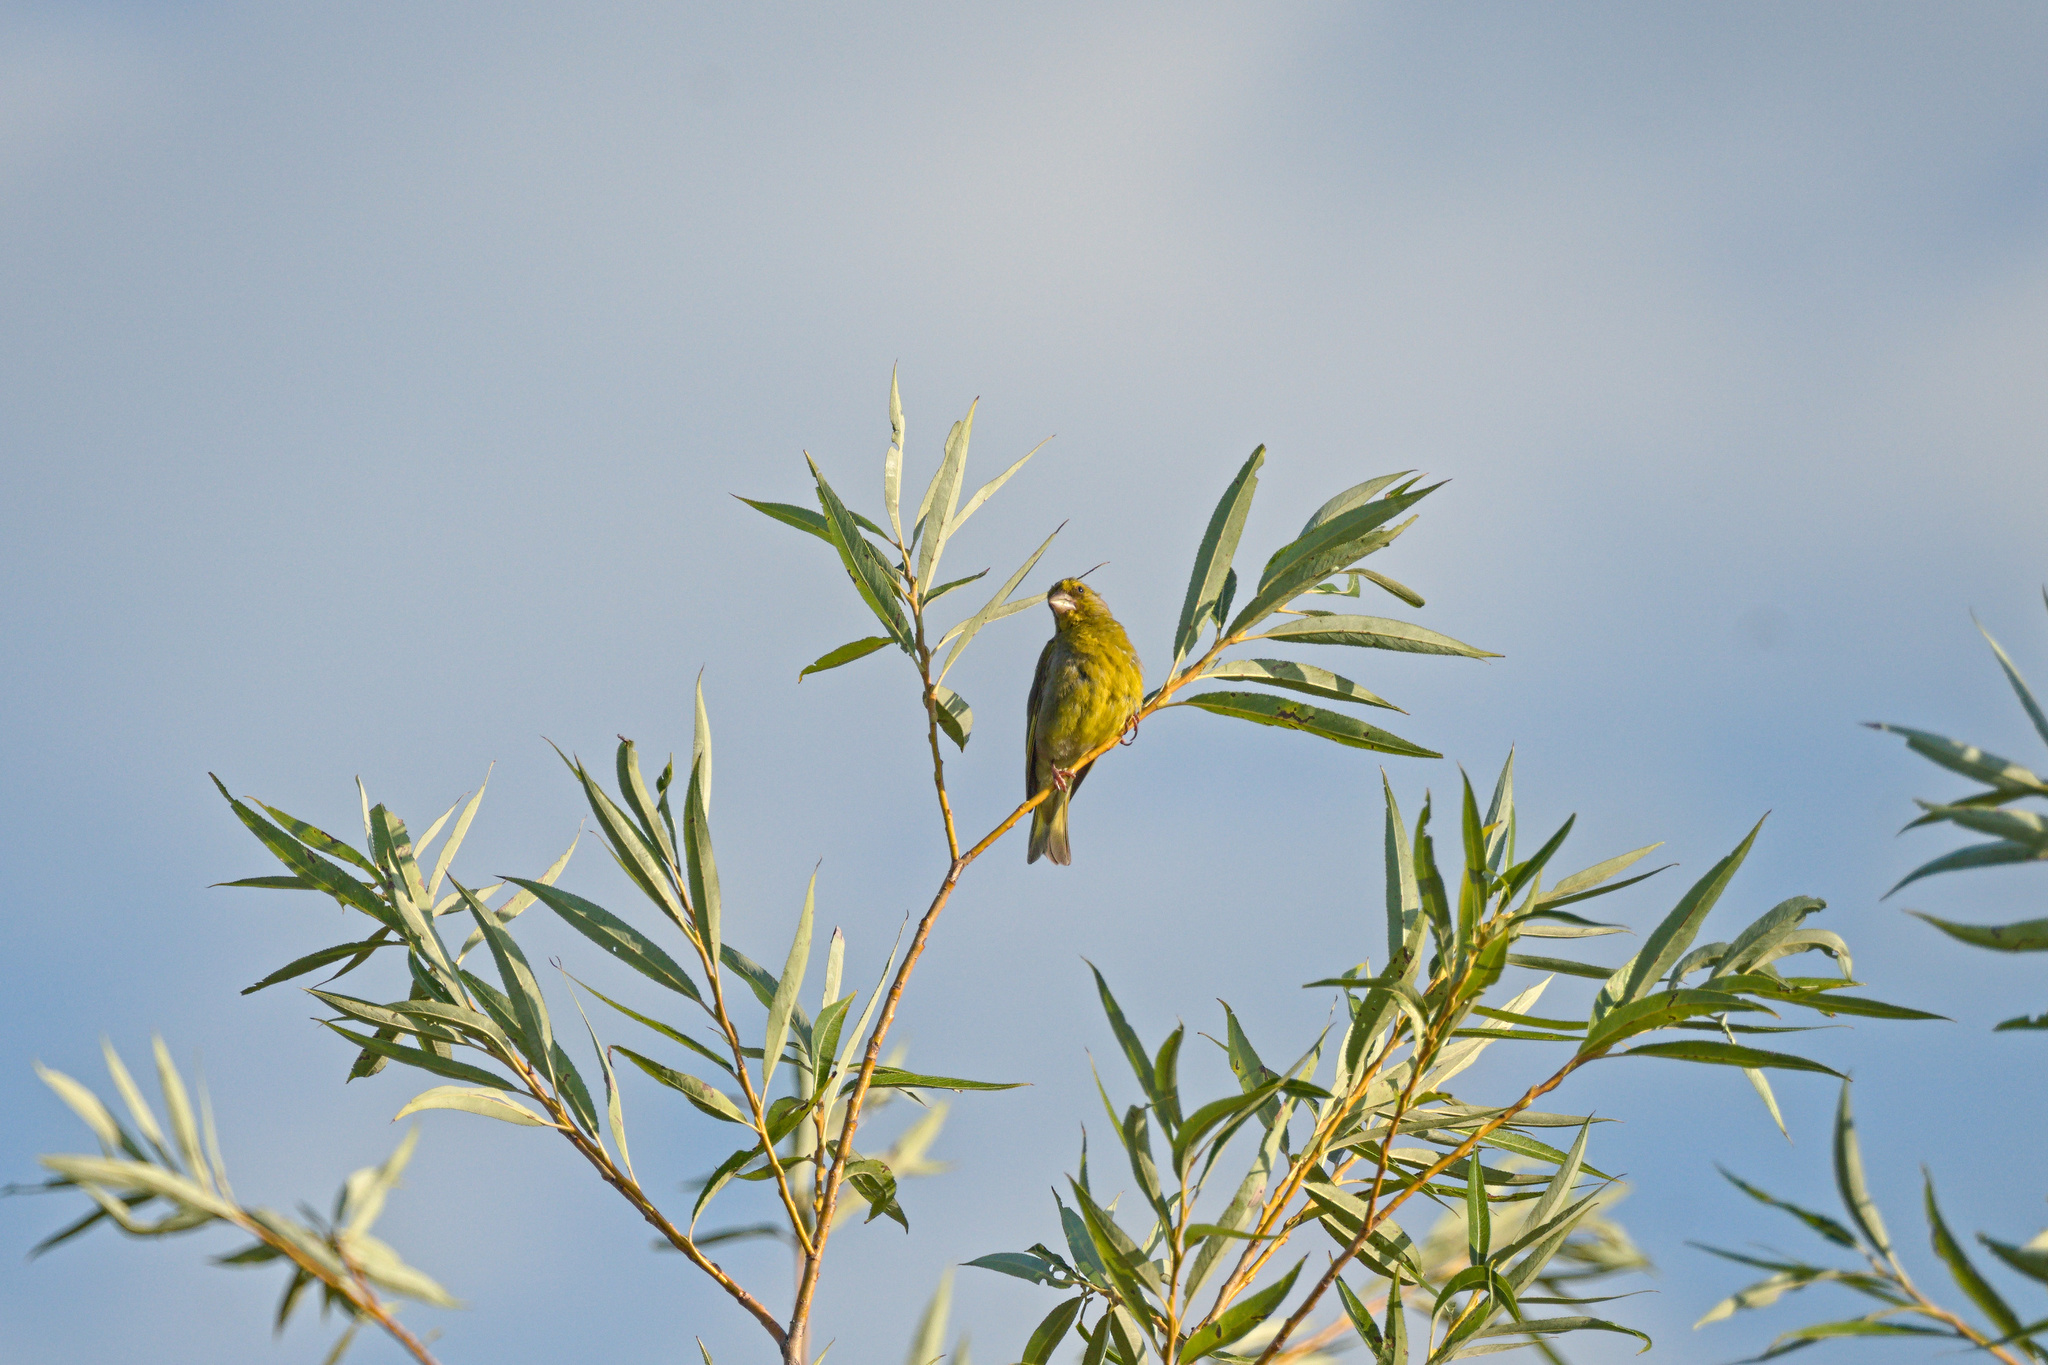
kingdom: Plantae
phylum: Tracheophyta
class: Liliopsida
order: Poales
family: Poaceae
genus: Chloris
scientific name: Chloris chloris
